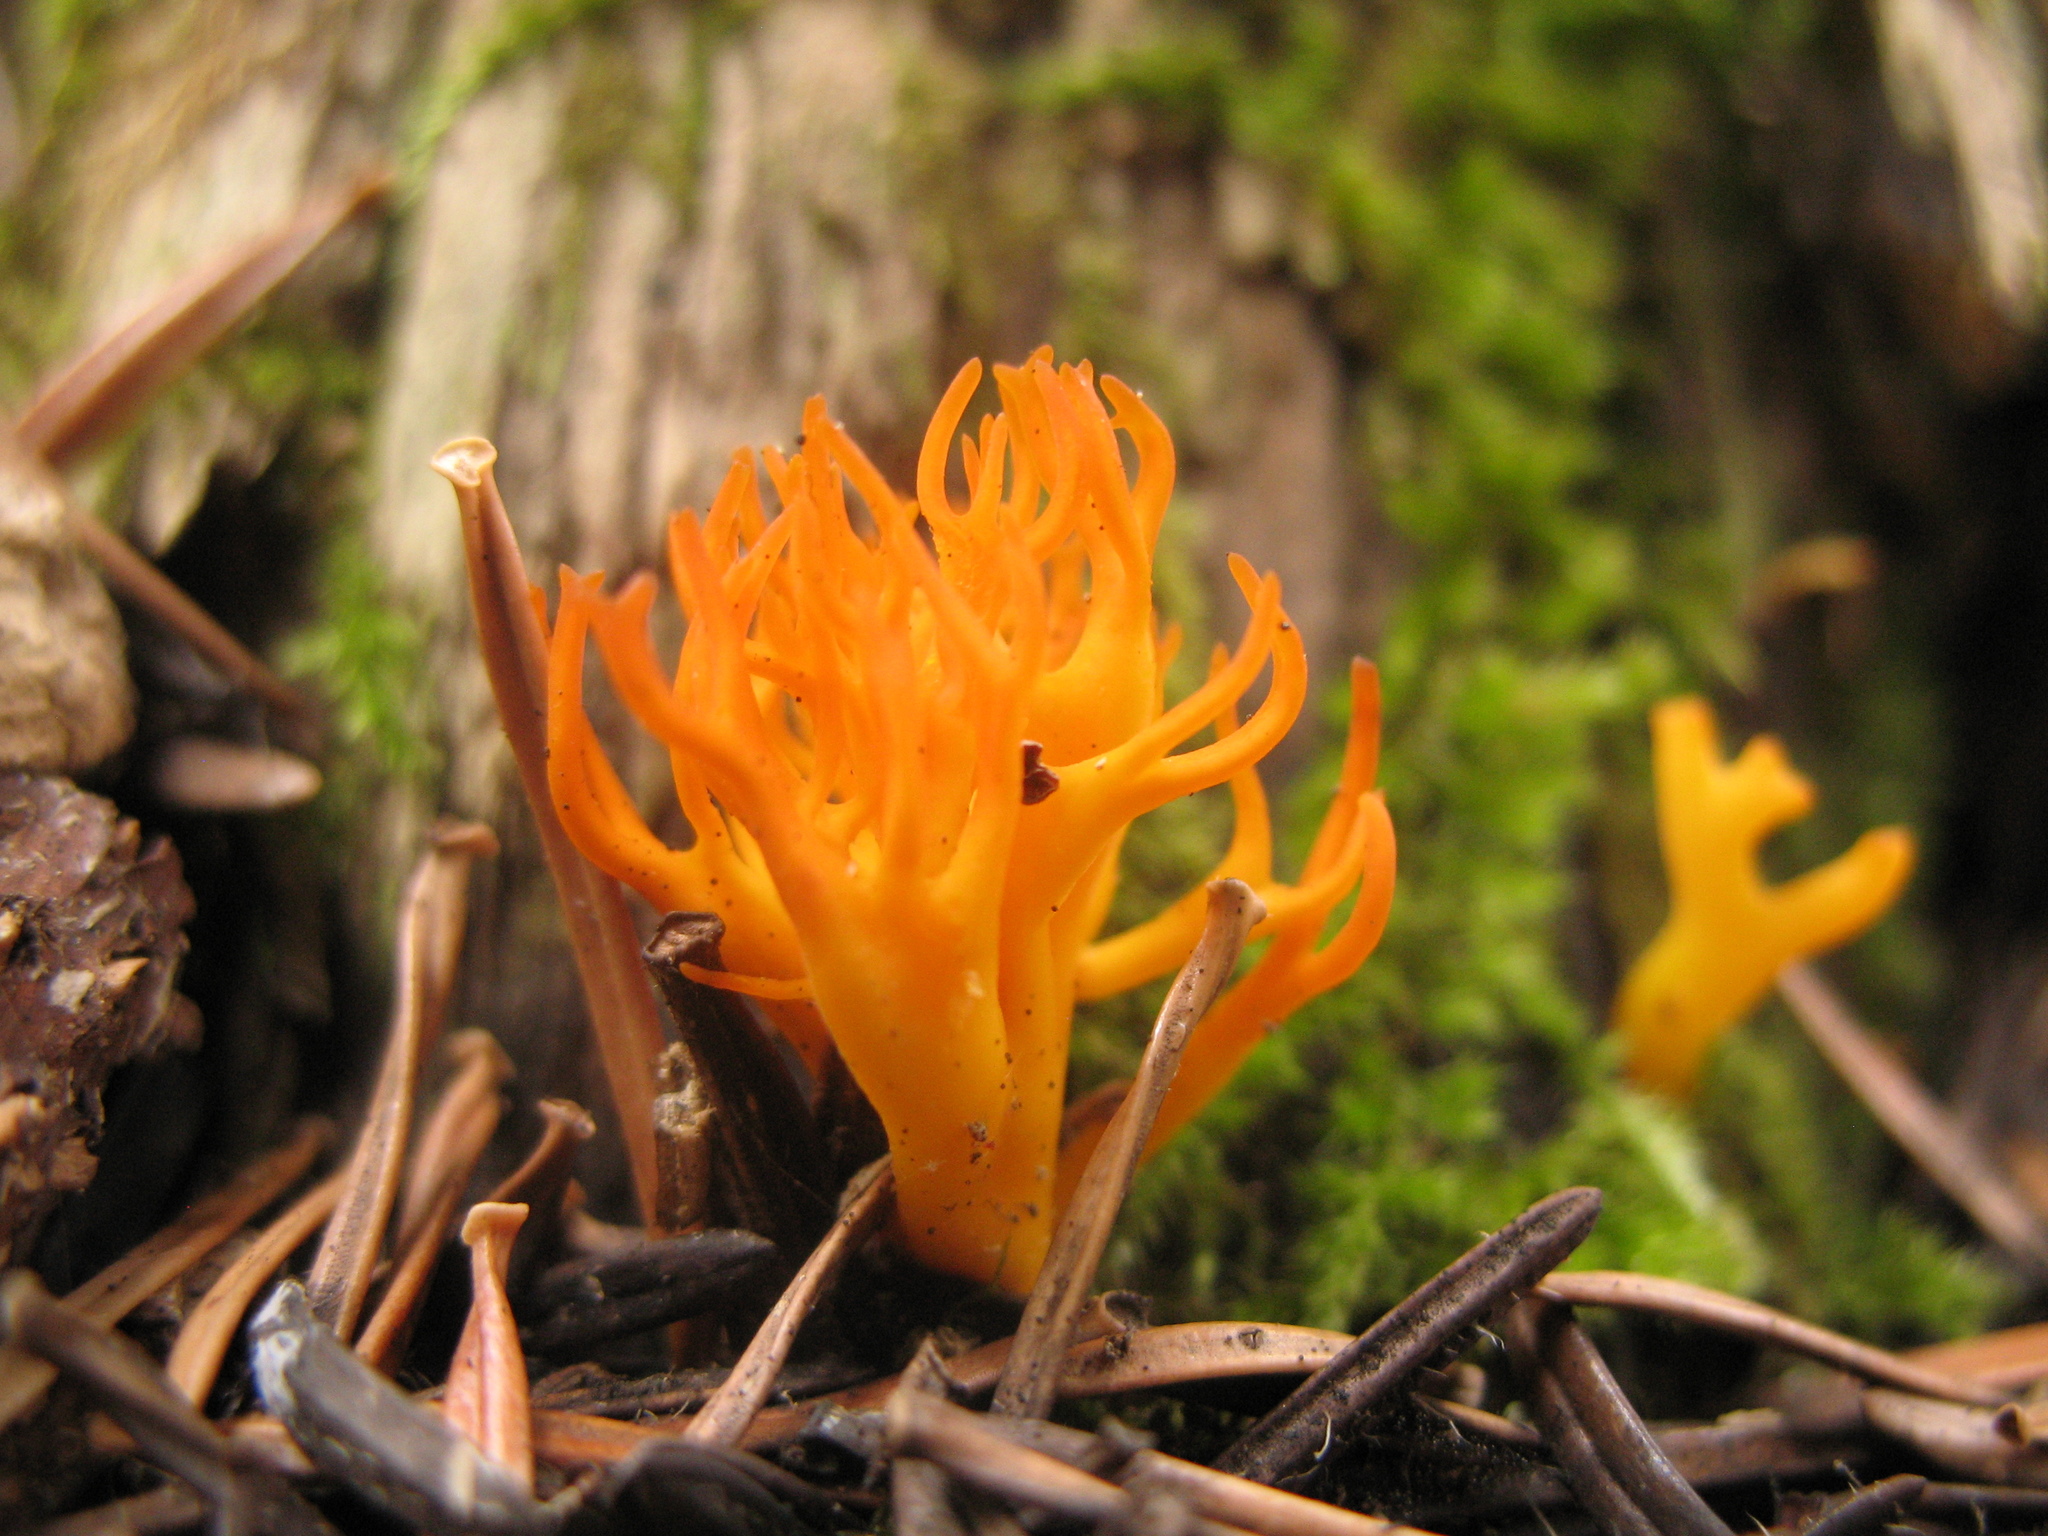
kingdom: Fungi
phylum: Basidiomycota
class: Dacrymycetes
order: Dacrymycetales
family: Dacrymycetaceae
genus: Calocera
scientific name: Calocera viscosa
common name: Yellow stagshorn
